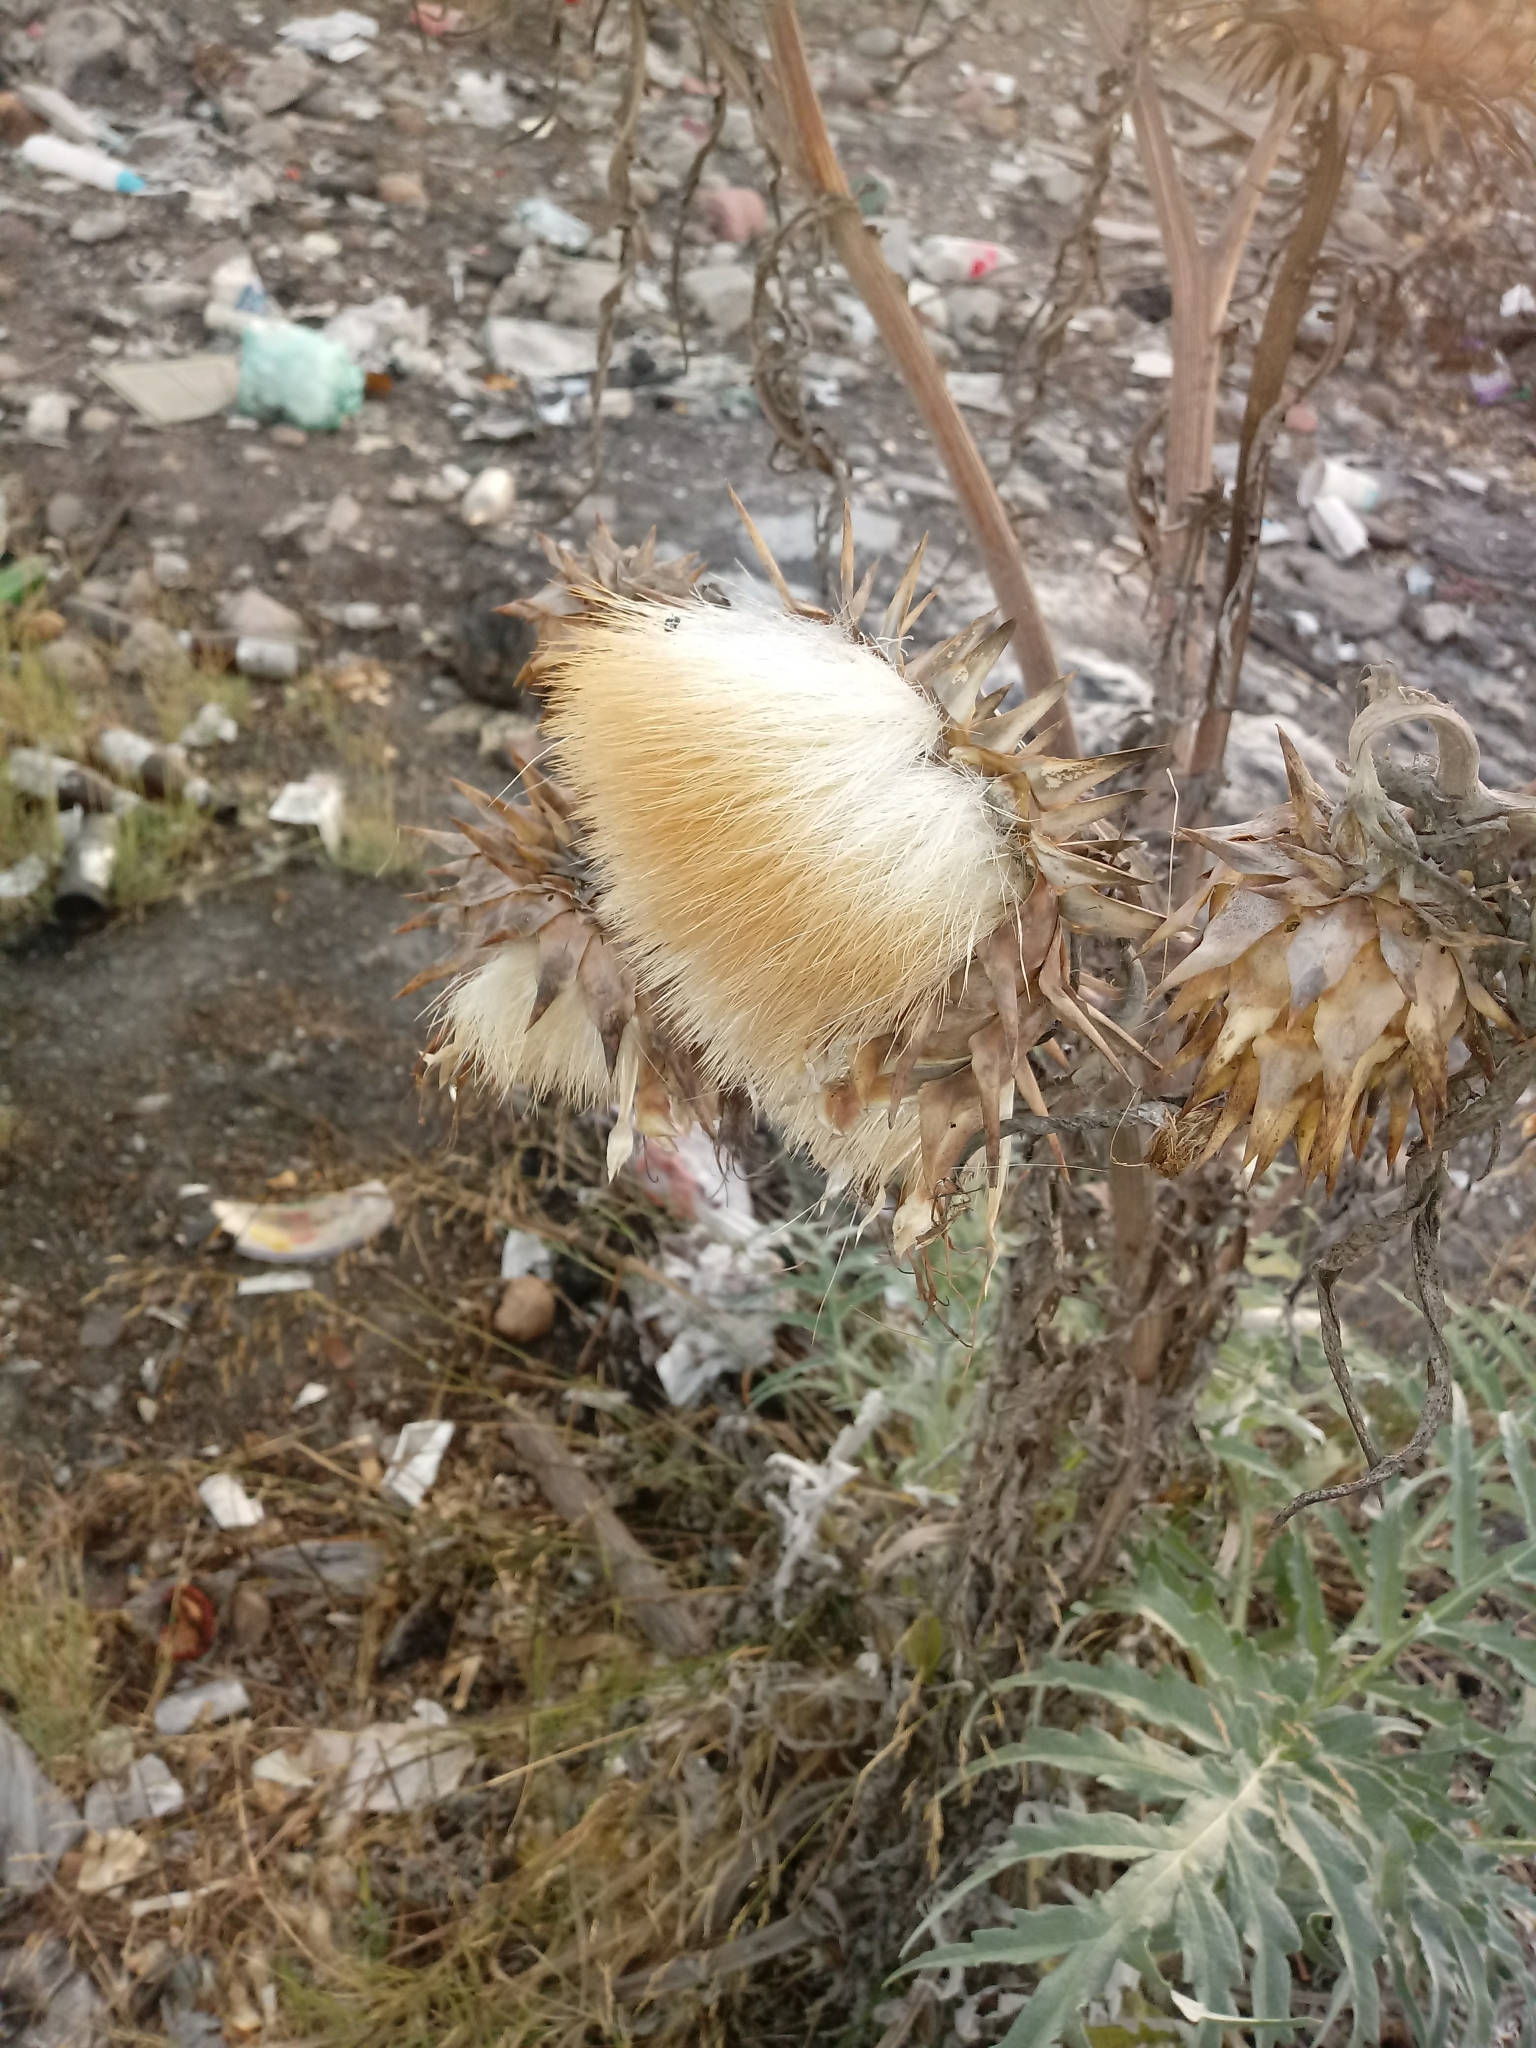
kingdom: Plantae
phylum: Tracheophyta
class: Magnoliopsida
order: Asterales
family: Asteraceae
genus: Cynara
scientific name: Cynara cardunculus
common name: Globe artichoke
